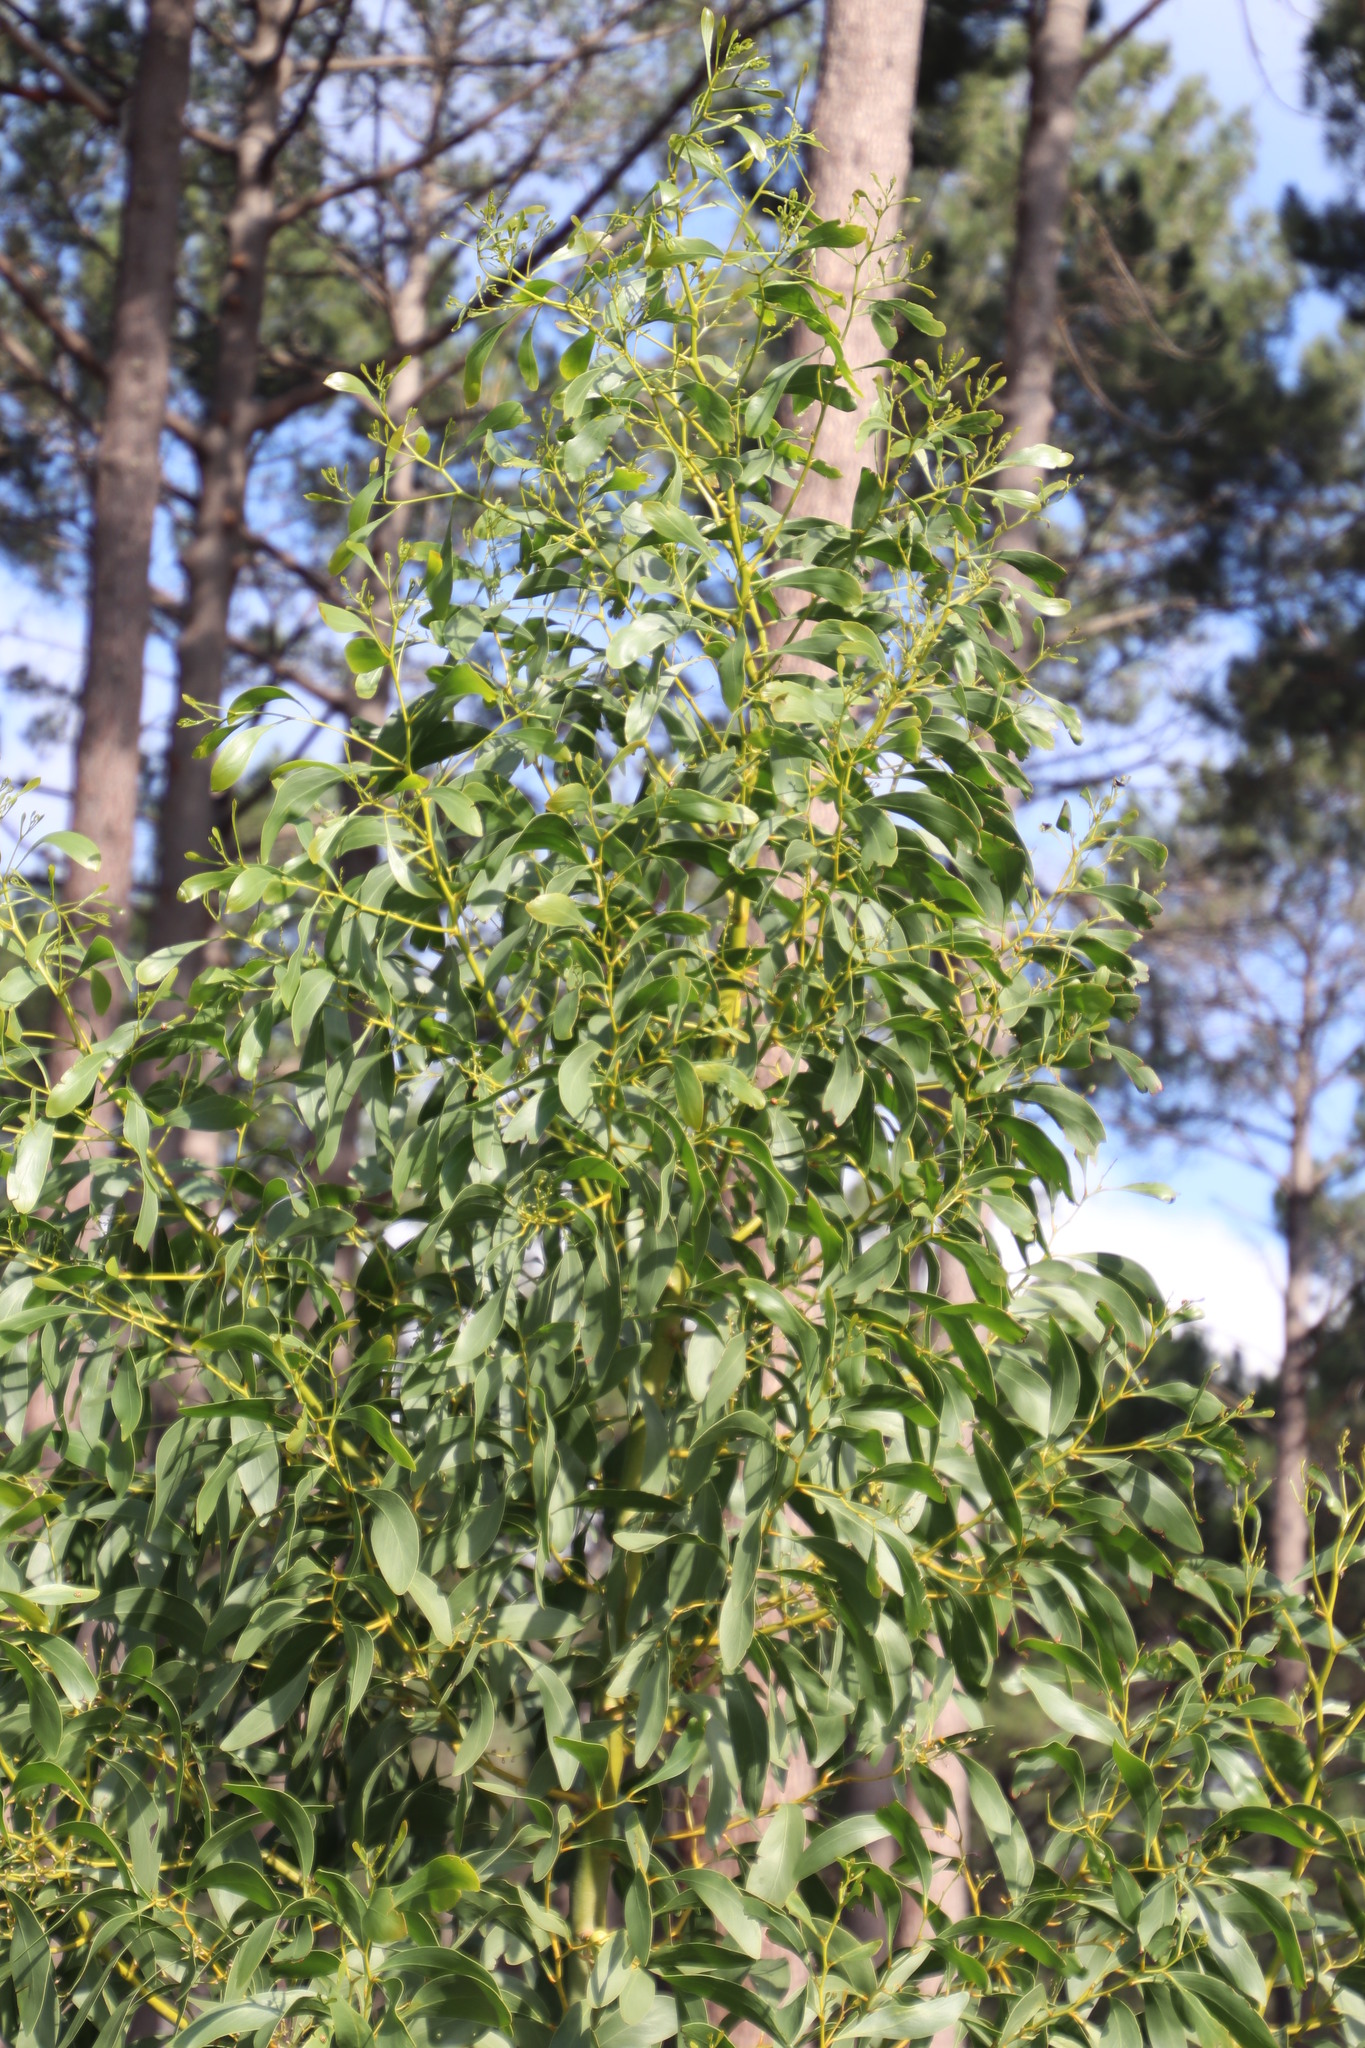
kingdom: Plantae
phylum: Tracheophyta
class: Magnoliopsida
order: Fabales
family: Fabaceae
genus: Acacia
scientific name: Acacia pycnantha
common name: Golden wattle
